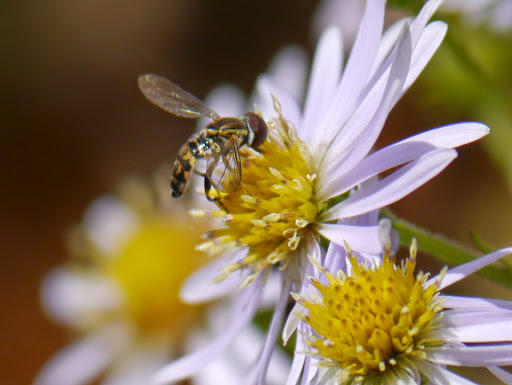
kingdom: Animalia
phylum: Arthropoda
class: Insecta
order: Diptera
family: Syrphidae
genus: Toxomerus
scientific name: Toxomerus geminatus
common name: Eastern calligrapher
